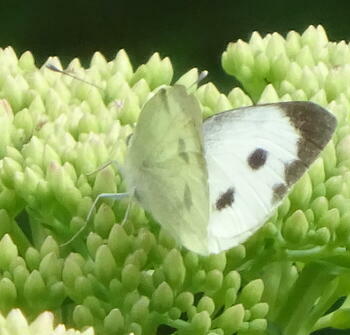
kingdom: Animalia
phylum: Arthropoda
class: Insecta
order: Lepidoptera
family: Pieridae
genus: Pieris
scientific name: Pieris brassicae
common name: Large white
